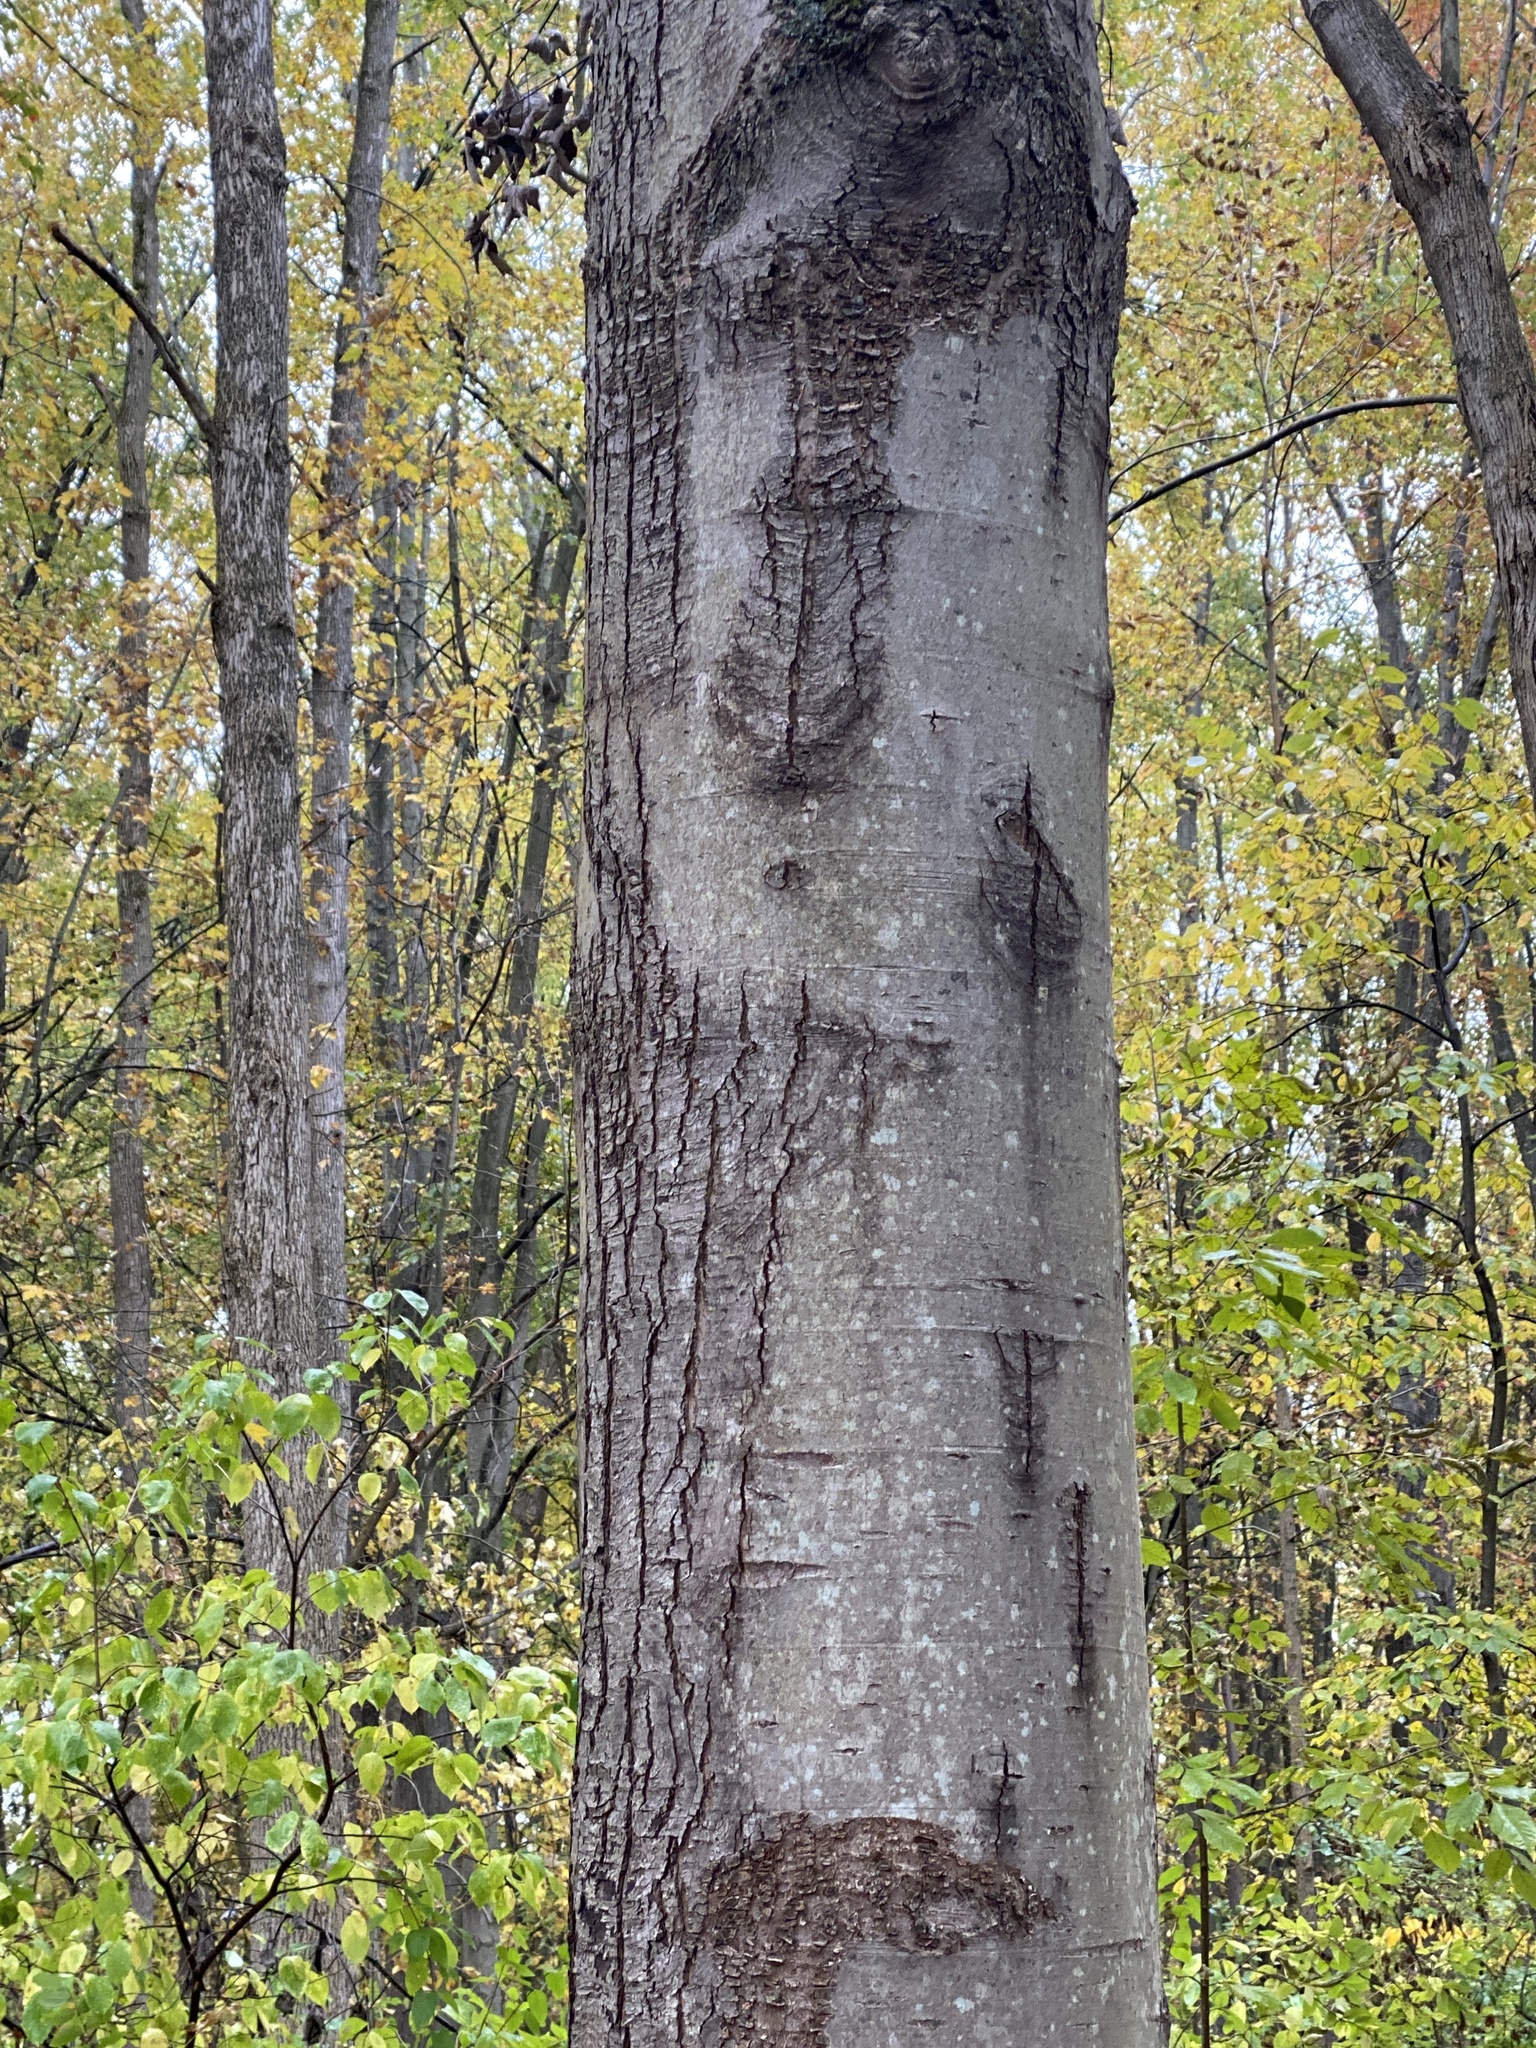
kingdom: Plantae
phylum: Tracheophyta
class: Magnoliopsida
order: Sapindales
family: Sapindaceae
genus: Acer
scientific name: Acer rubrum
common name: Red maple
